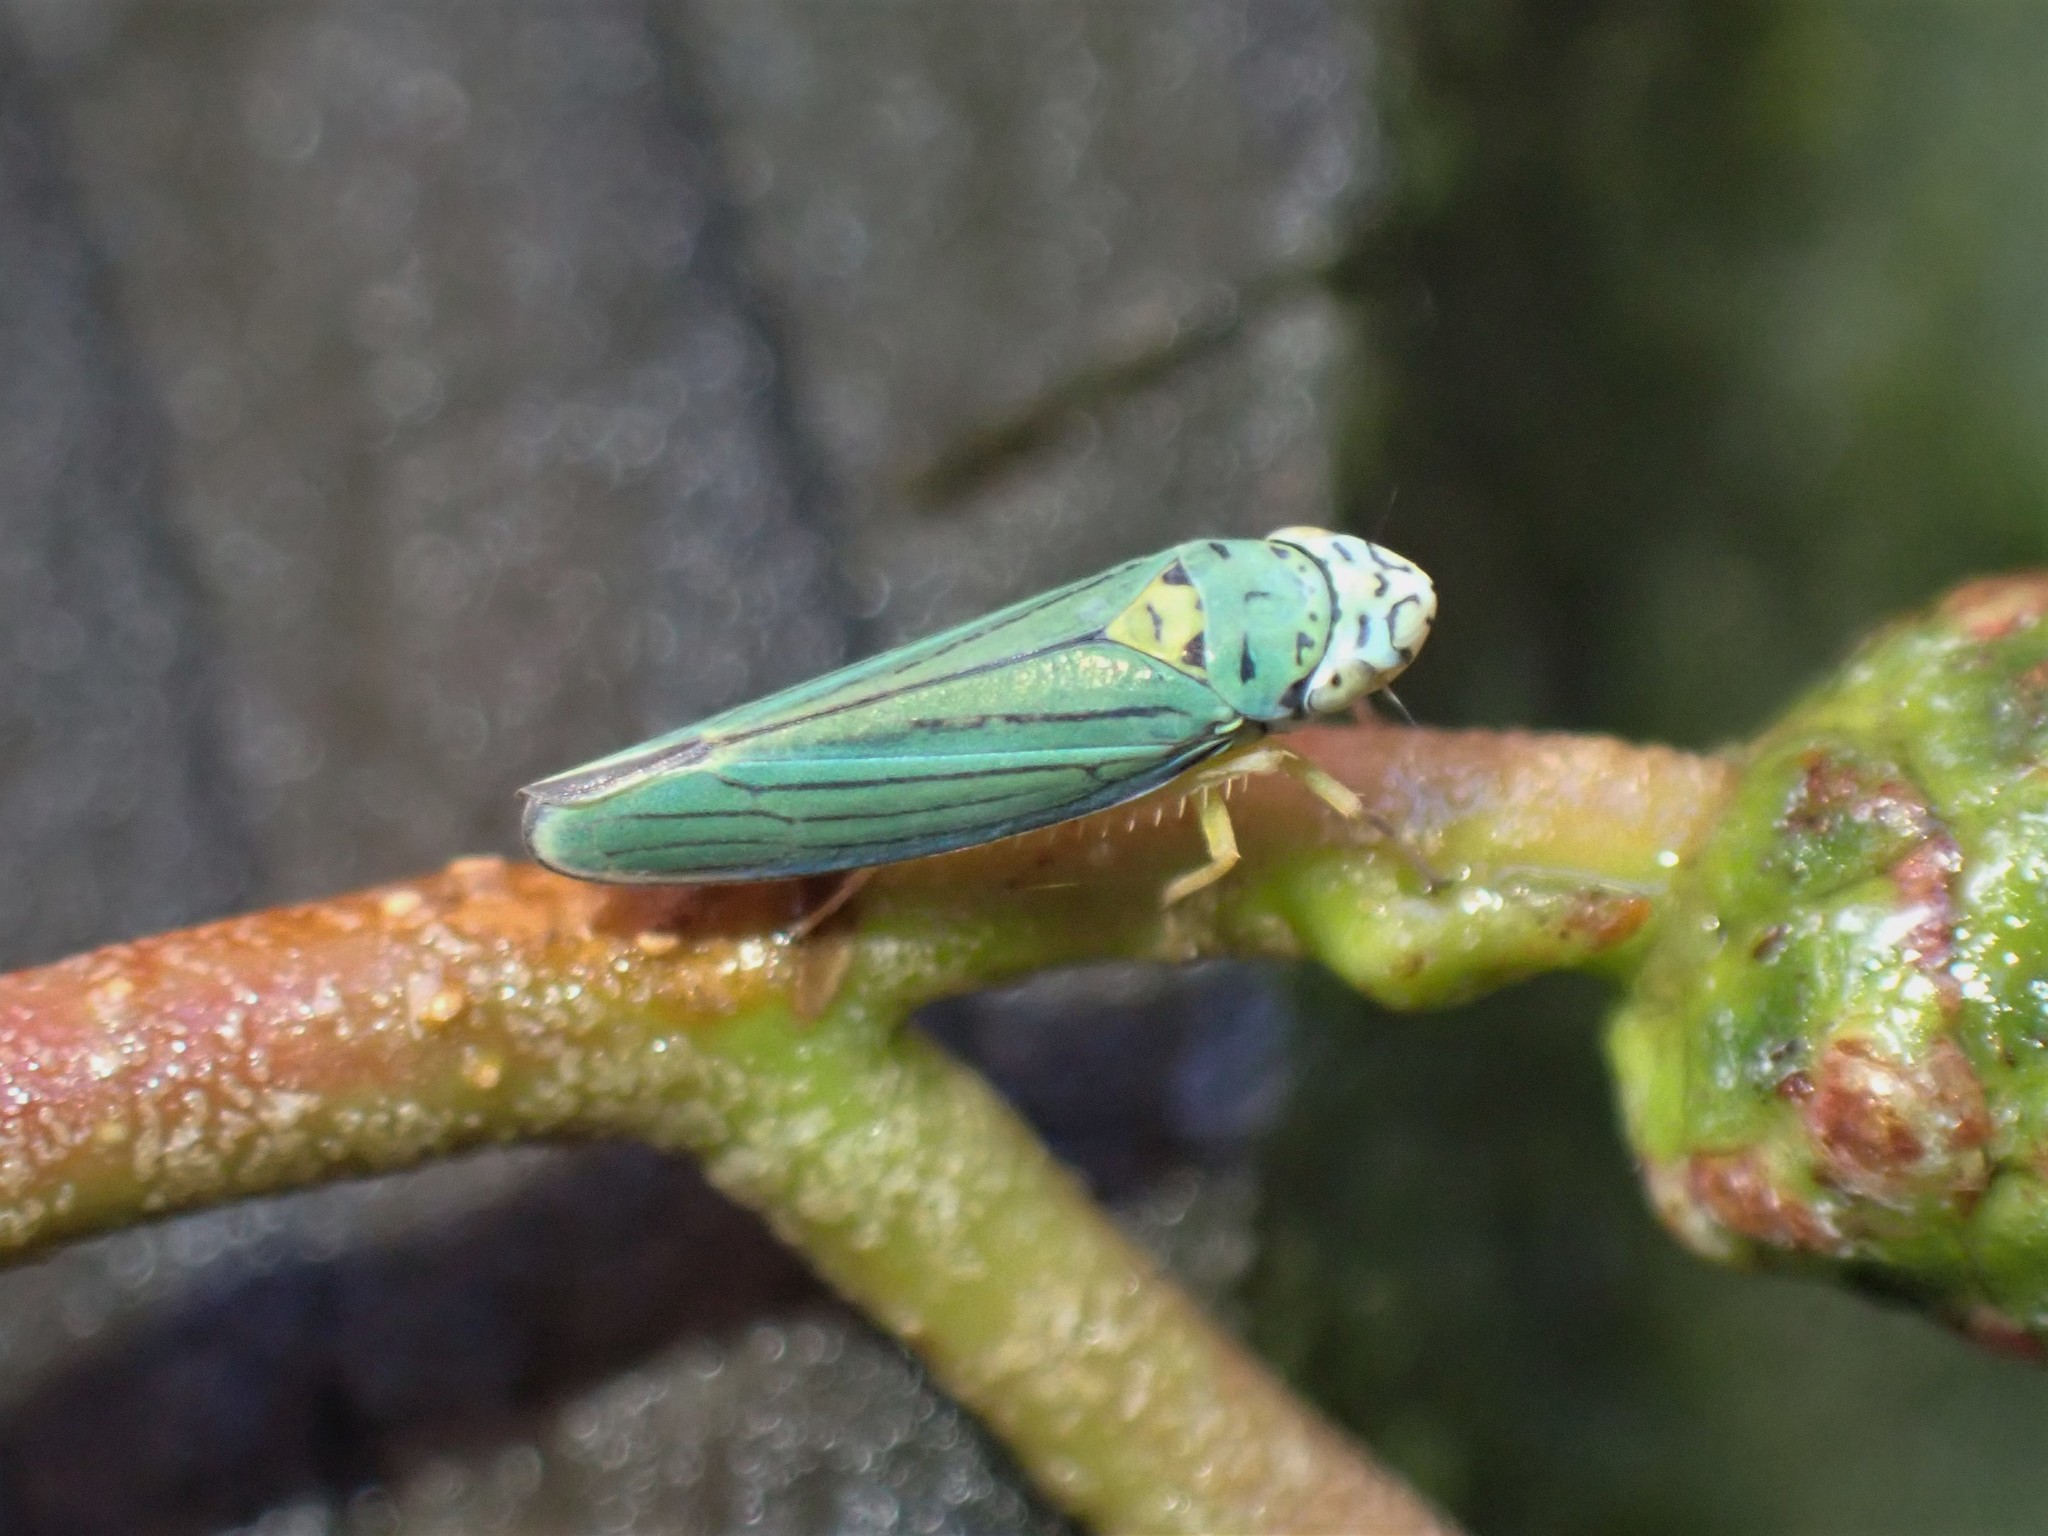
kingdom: Animalia
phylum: Arthropoda
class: Insecta
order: Hemiptera
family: Cicadellidae
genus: Graphocephala
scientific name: Graphocephala atropunctata
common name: Blue-green sharpshooter
